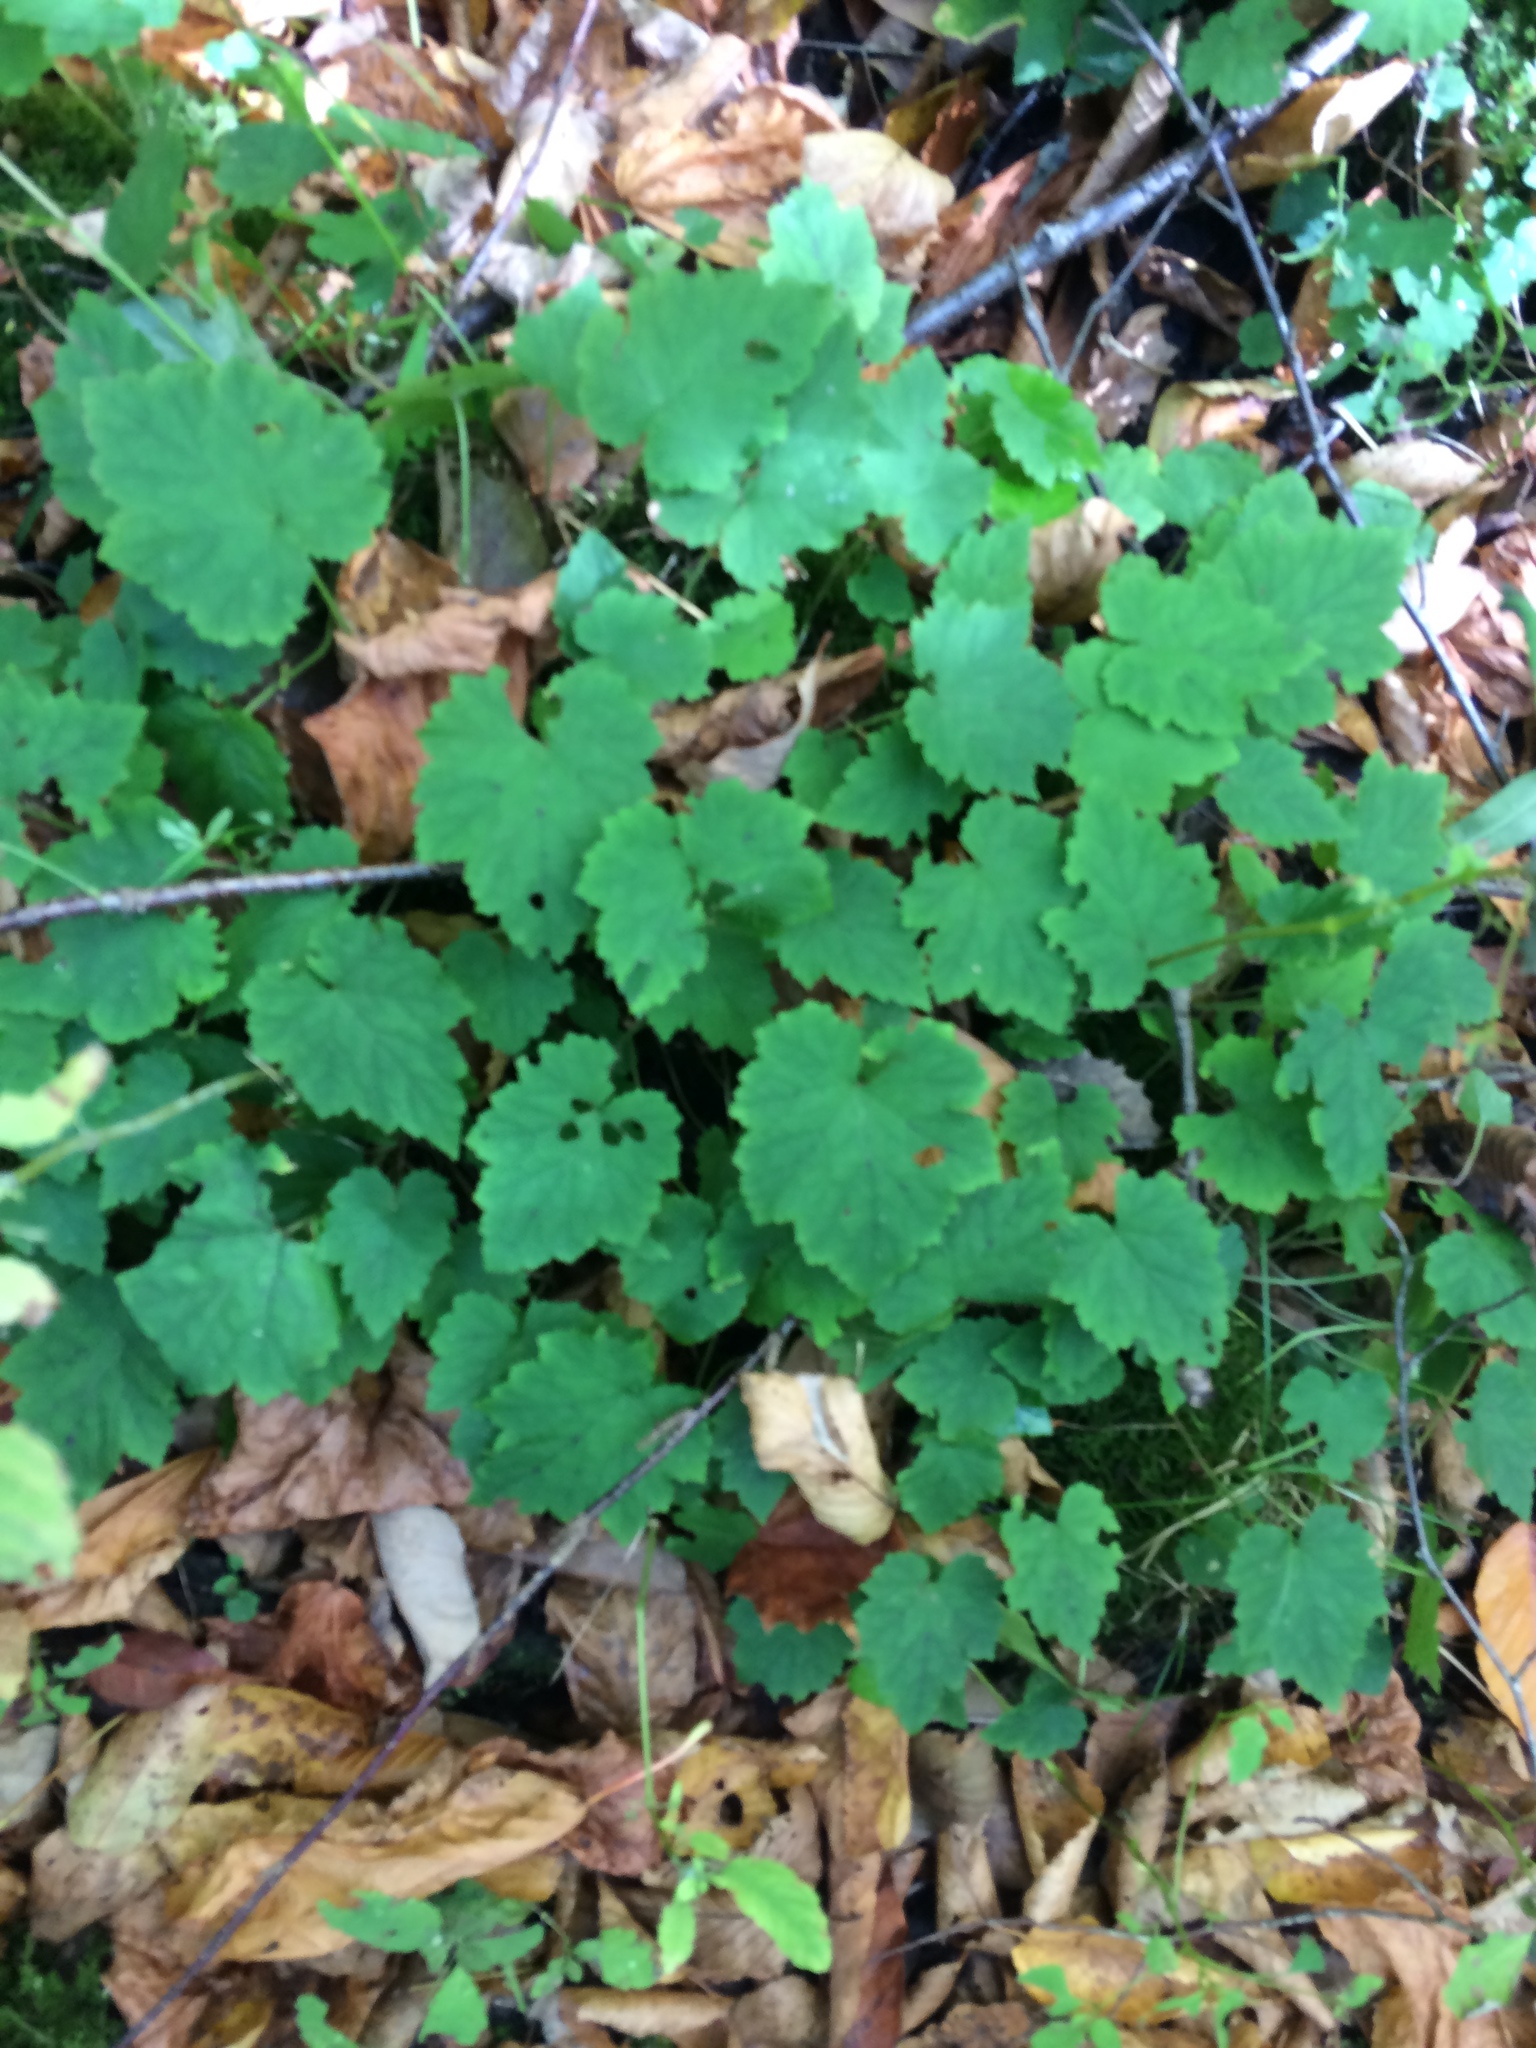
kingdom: Plantae
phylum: Tracheophyta
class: Magnoliopsida
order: Saxifragales
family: Saxifragaceae
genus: Tiarella
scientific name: Tiarella stolonifera
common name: Stoloniferous foamflower
